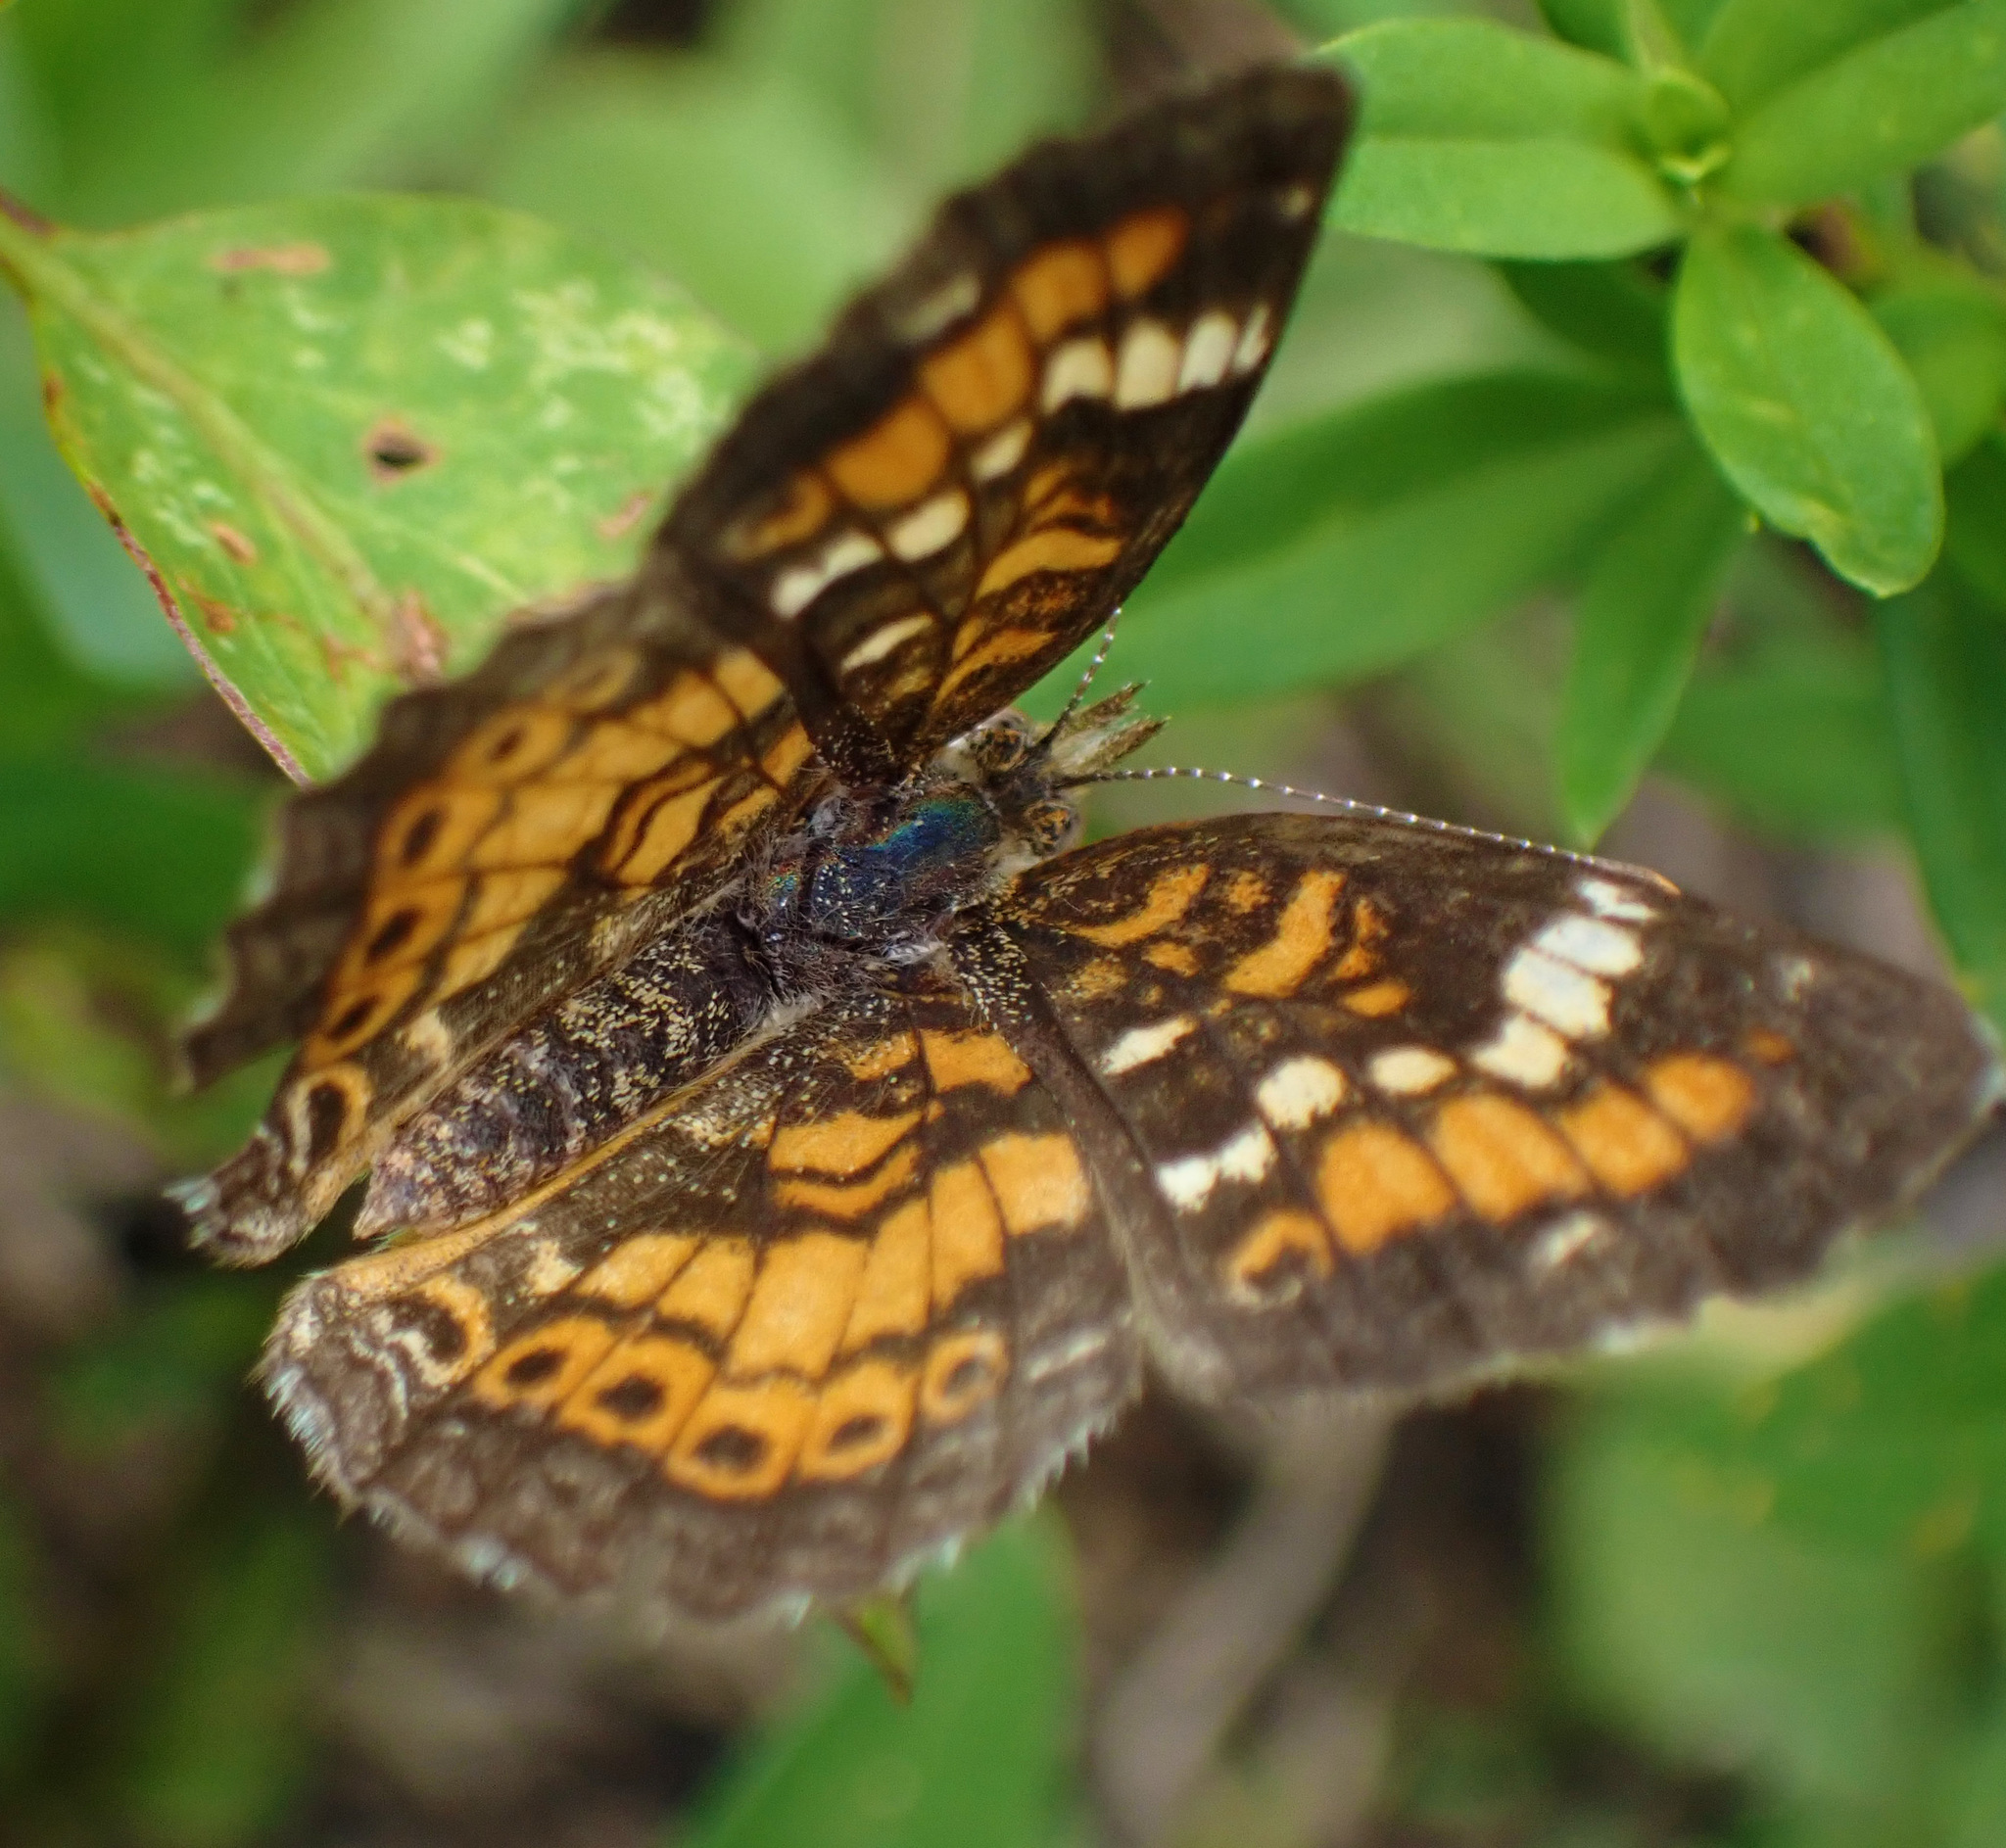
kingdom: Animalia
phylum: Arthropoda
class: Insecta
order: Lepidoptera
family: Nymphalidae
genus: Phyciodes
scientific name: Phyciodes phaon
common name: Phaon crescent
